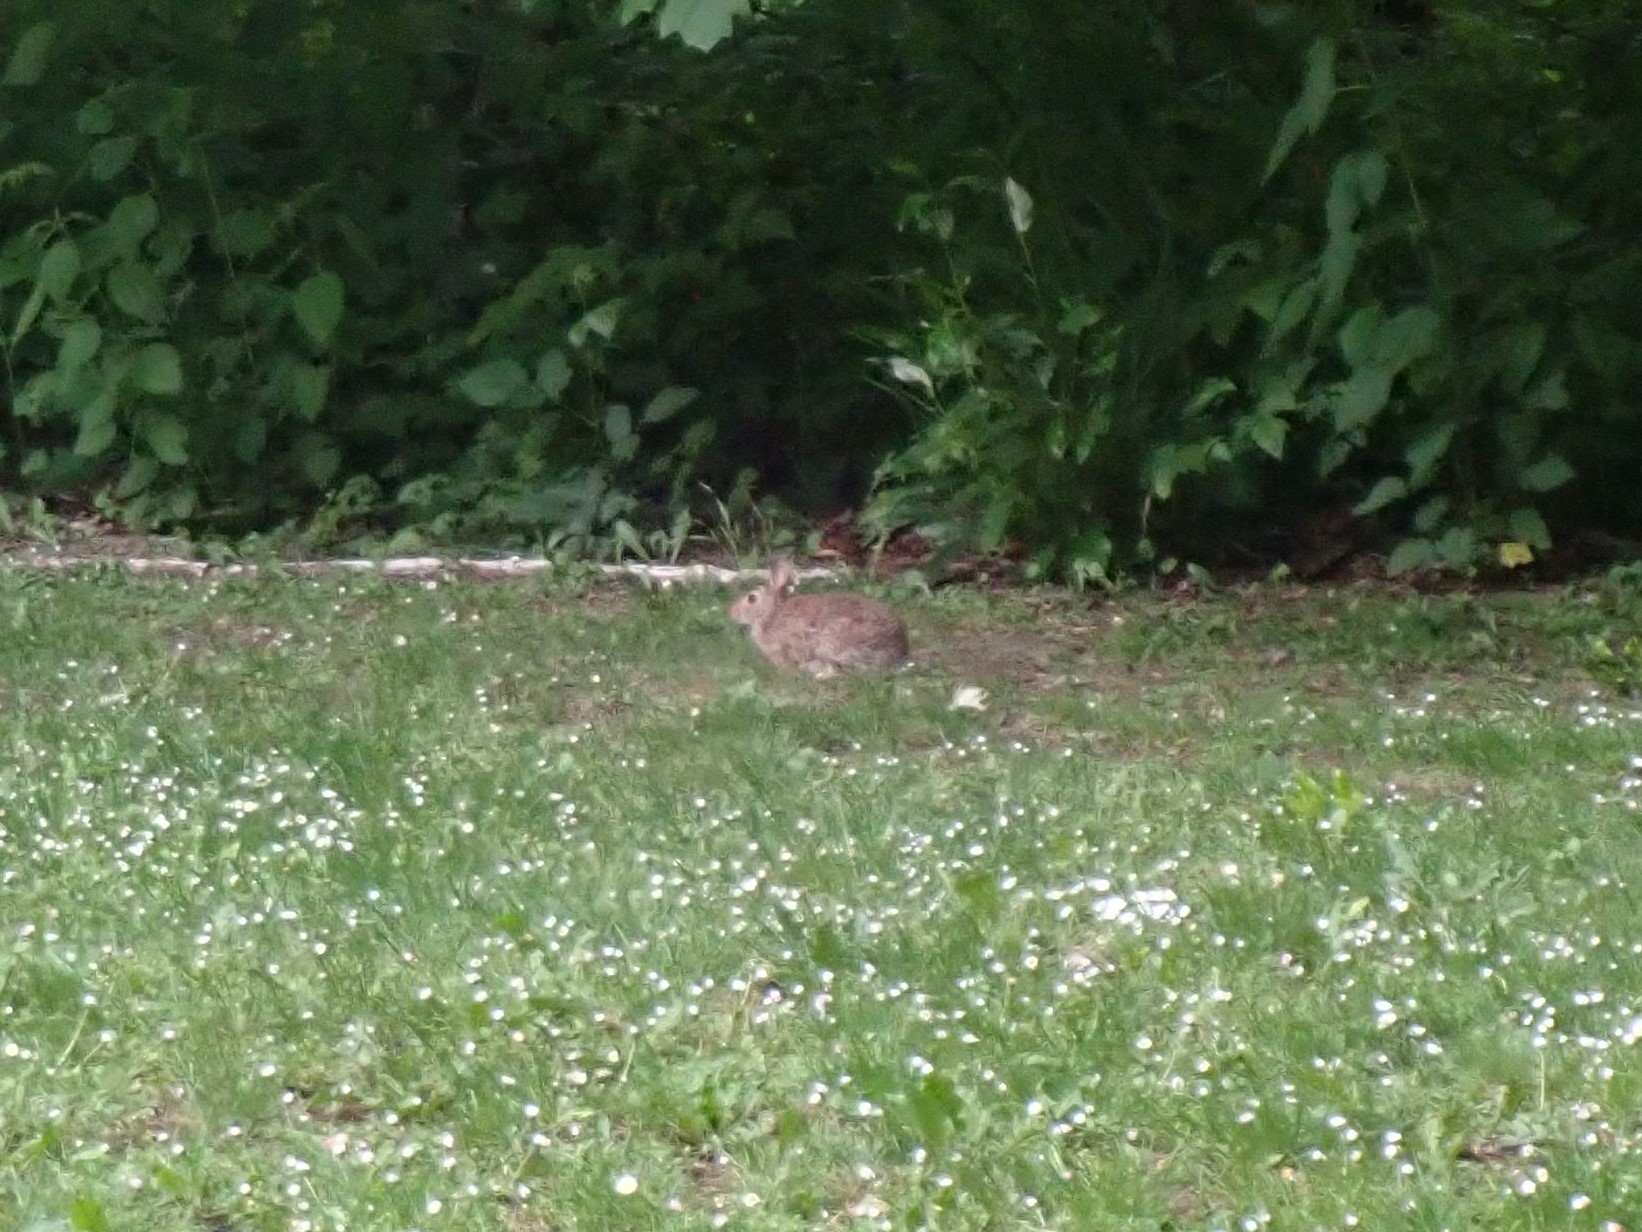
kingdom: Animalia
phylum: Chordata
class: Mammalia
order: Lagomorpha
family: Leporidae
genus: Sylvilagus
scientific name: Sylvilagus floridanus
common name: Eastern cottontail
